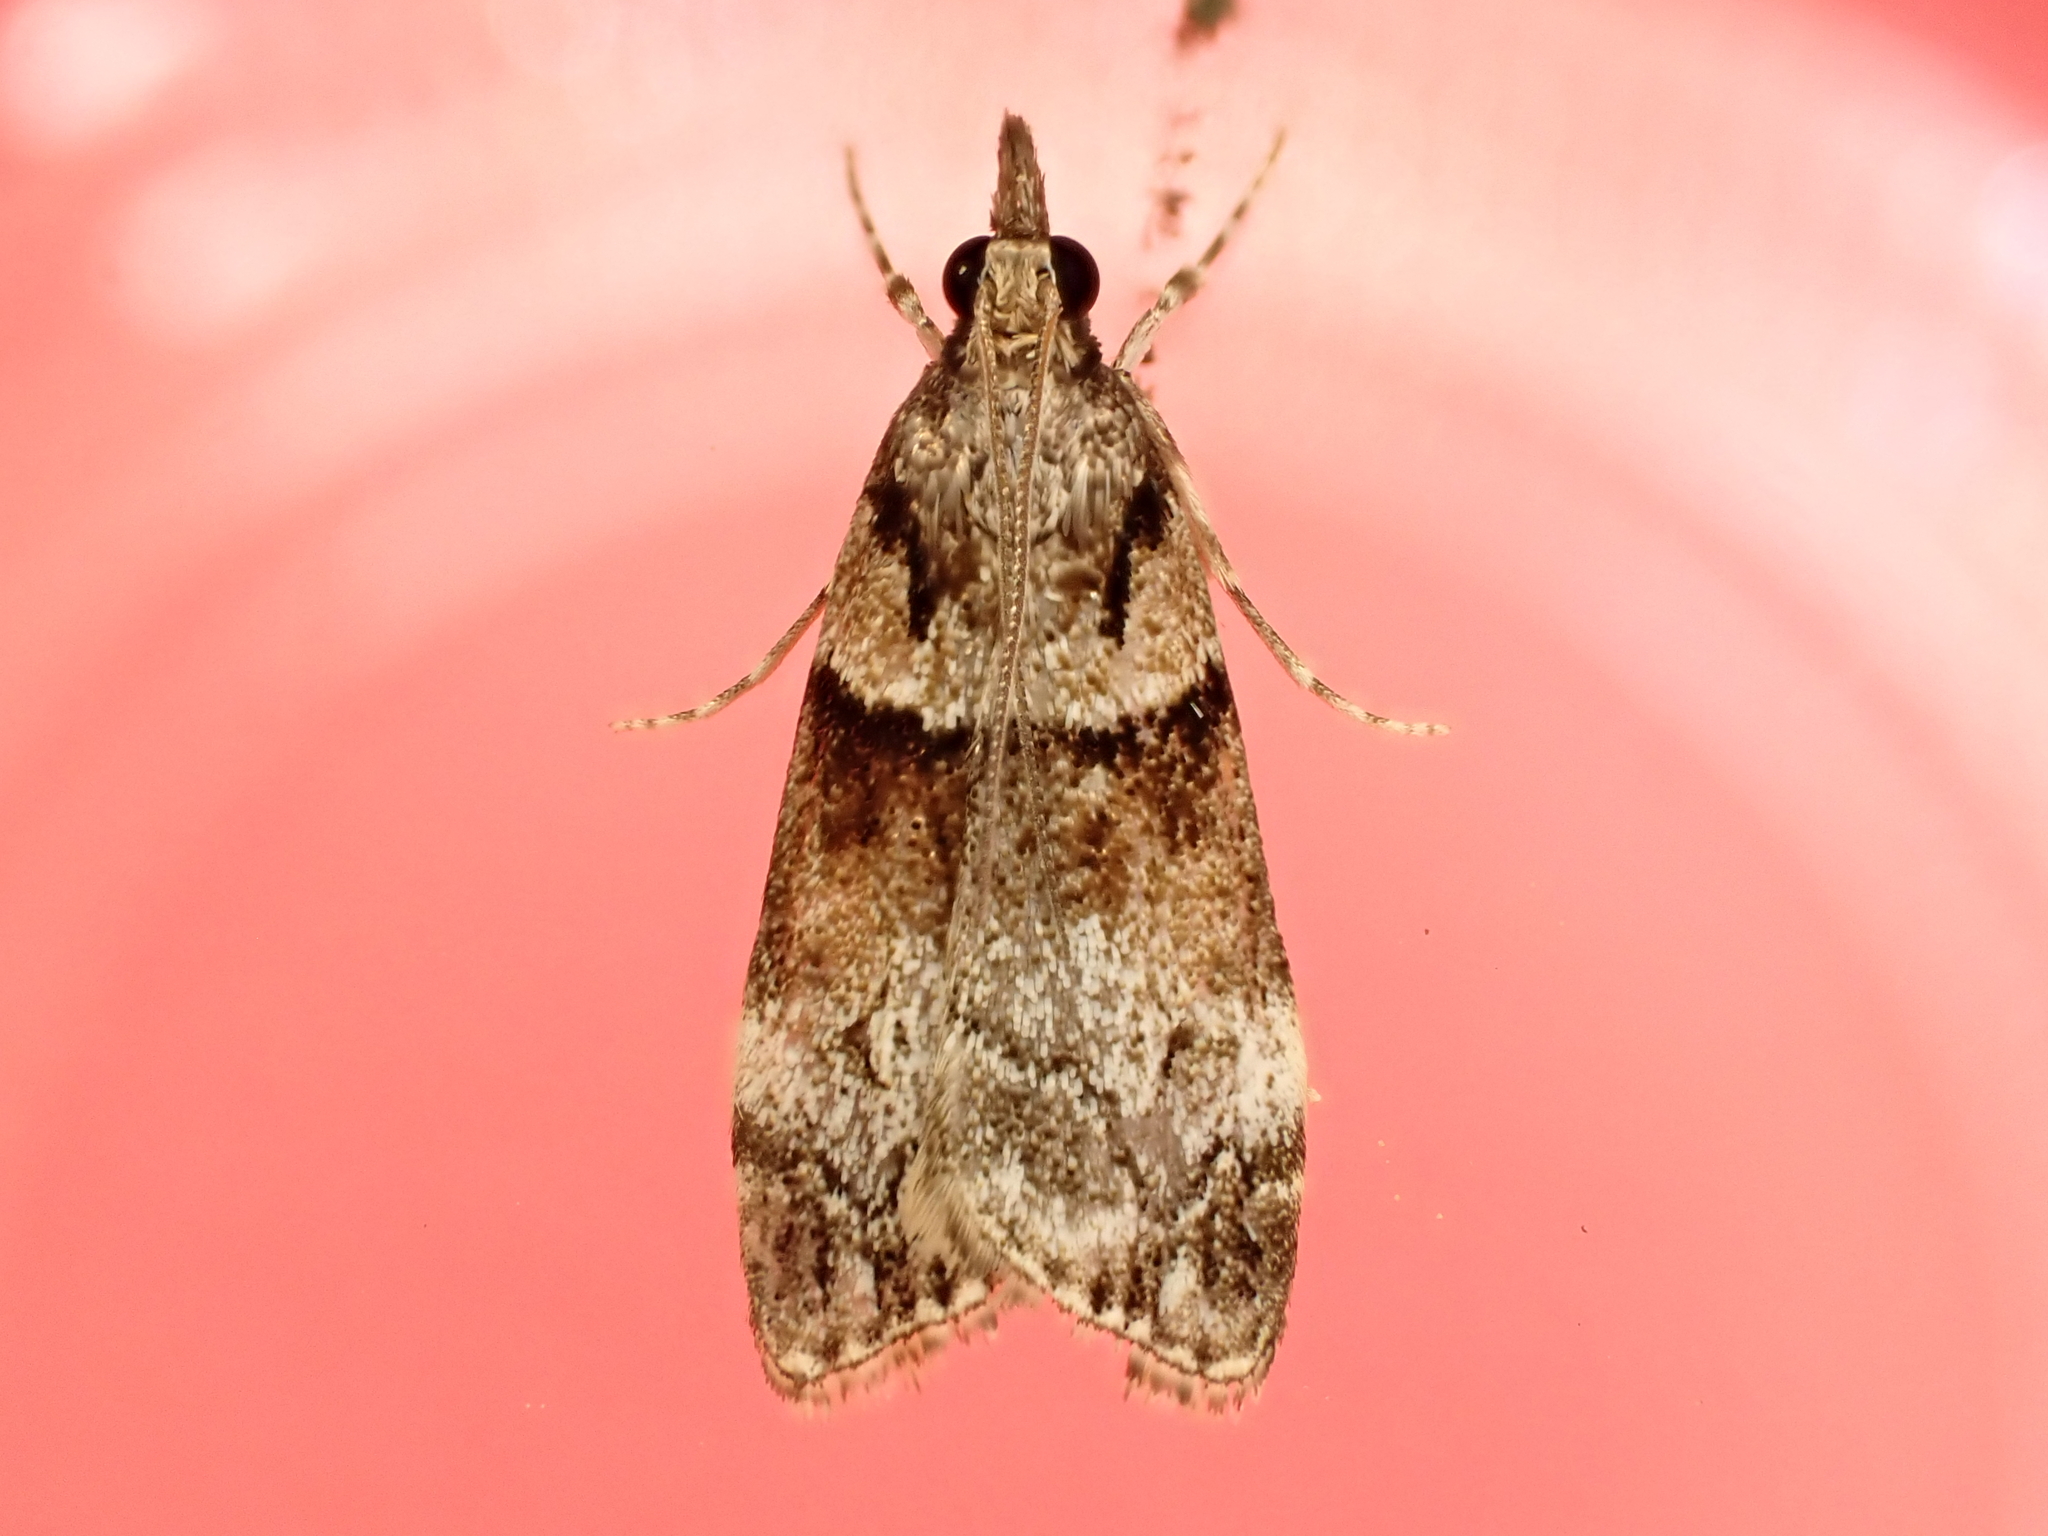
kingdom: Animalia
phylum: Arthropoda
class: Insecta
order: Lepidoptera
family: Crambidae
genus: Eudonia
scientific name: Eudonia colpota
